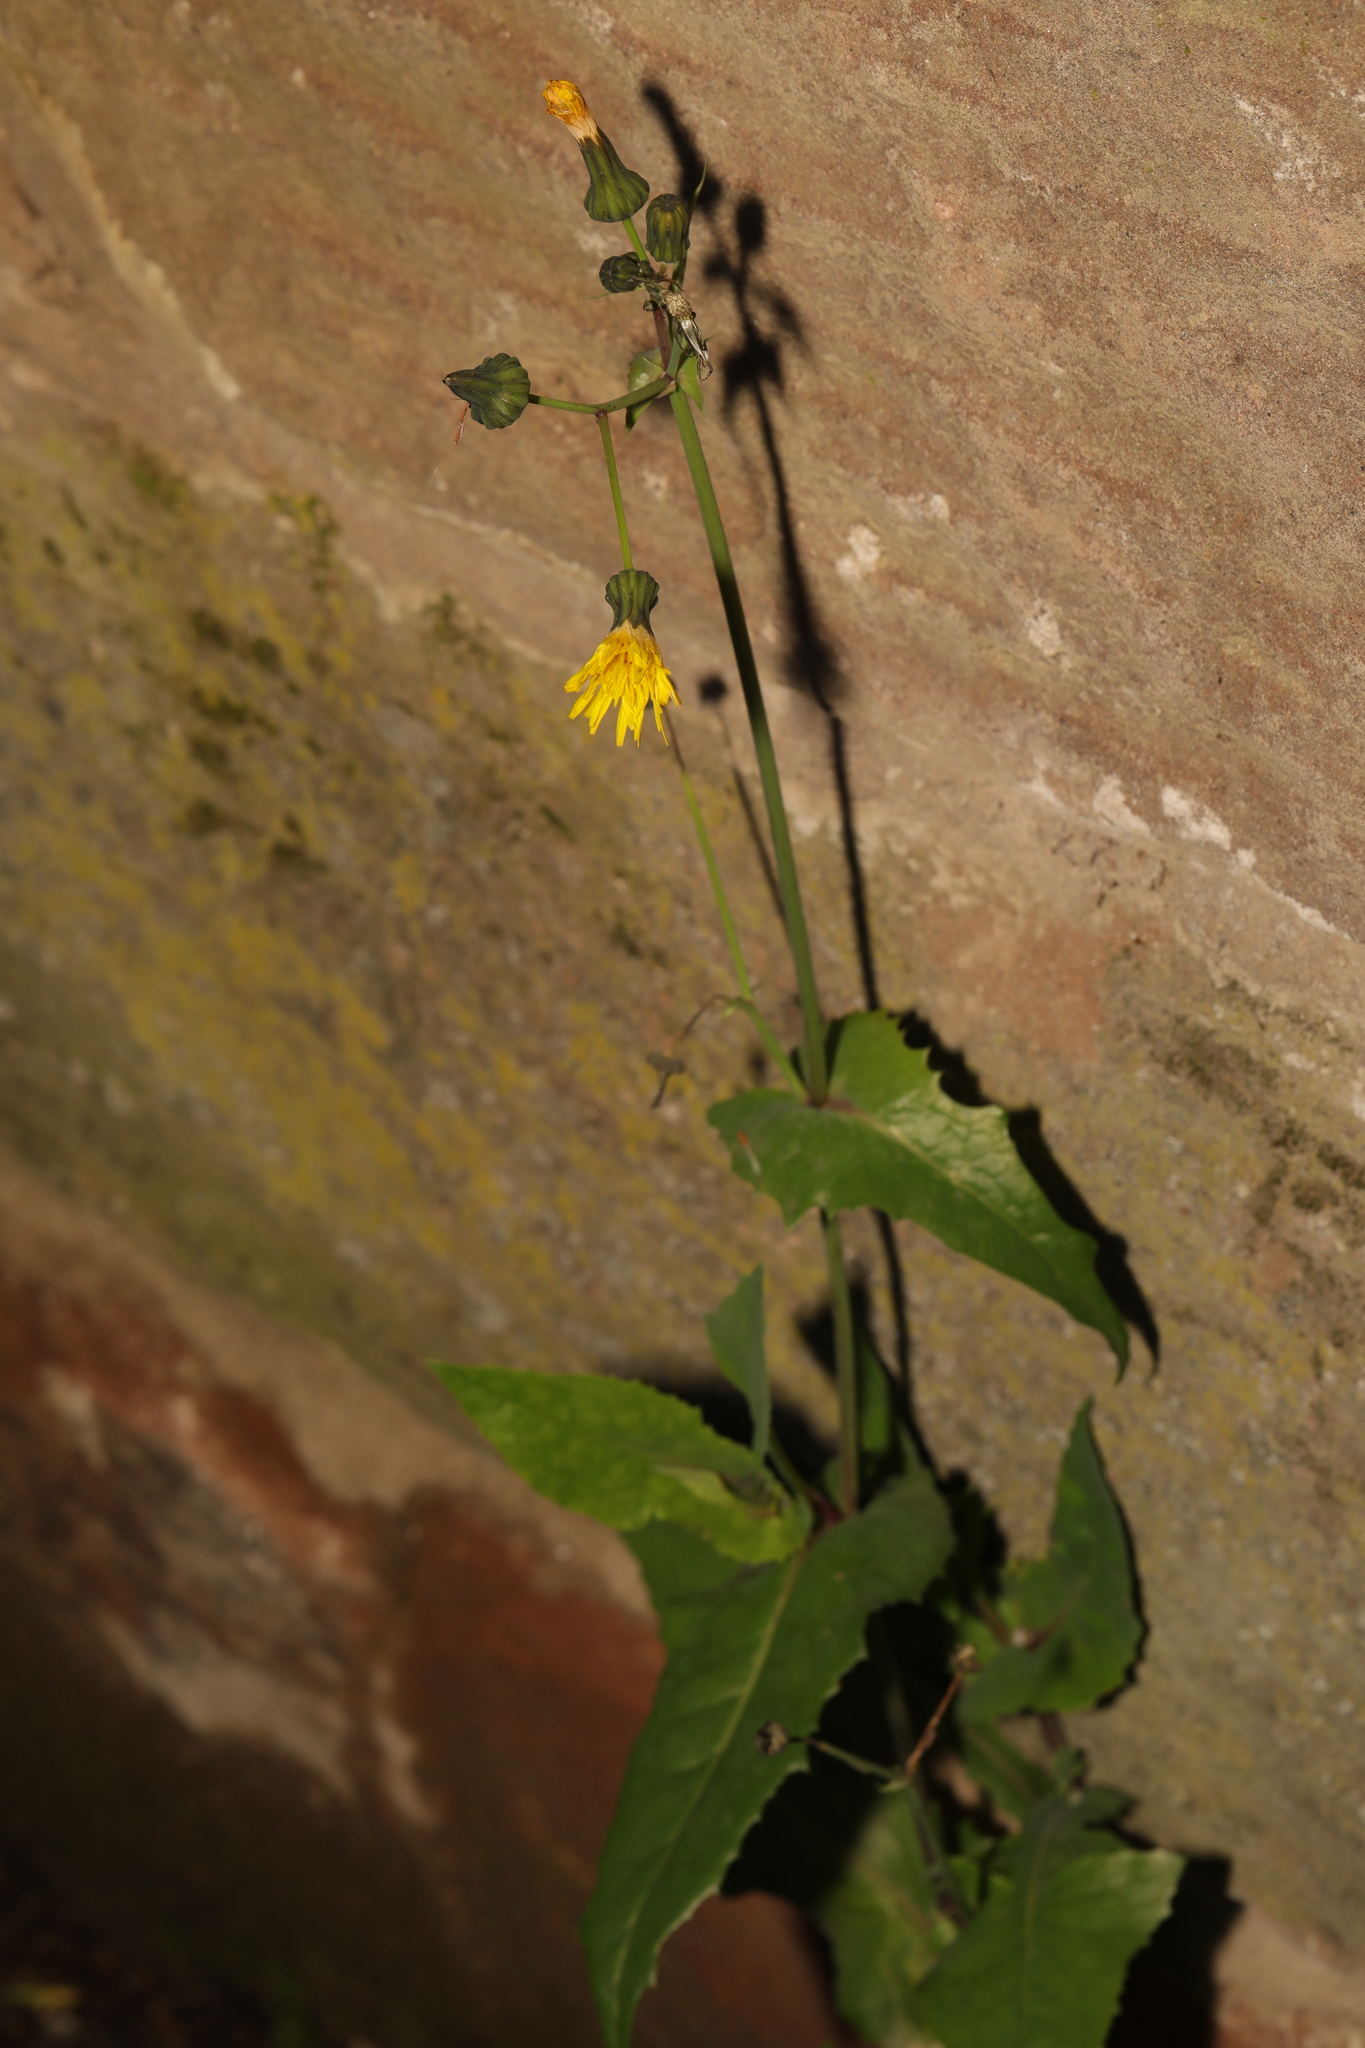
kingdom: Plantae
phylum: Tracheophyta
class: Magnoliopsida
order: Asterales
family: Asteraceae
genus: Sonchus
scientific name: Sonchus oleraceus
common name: Common sowthistle
